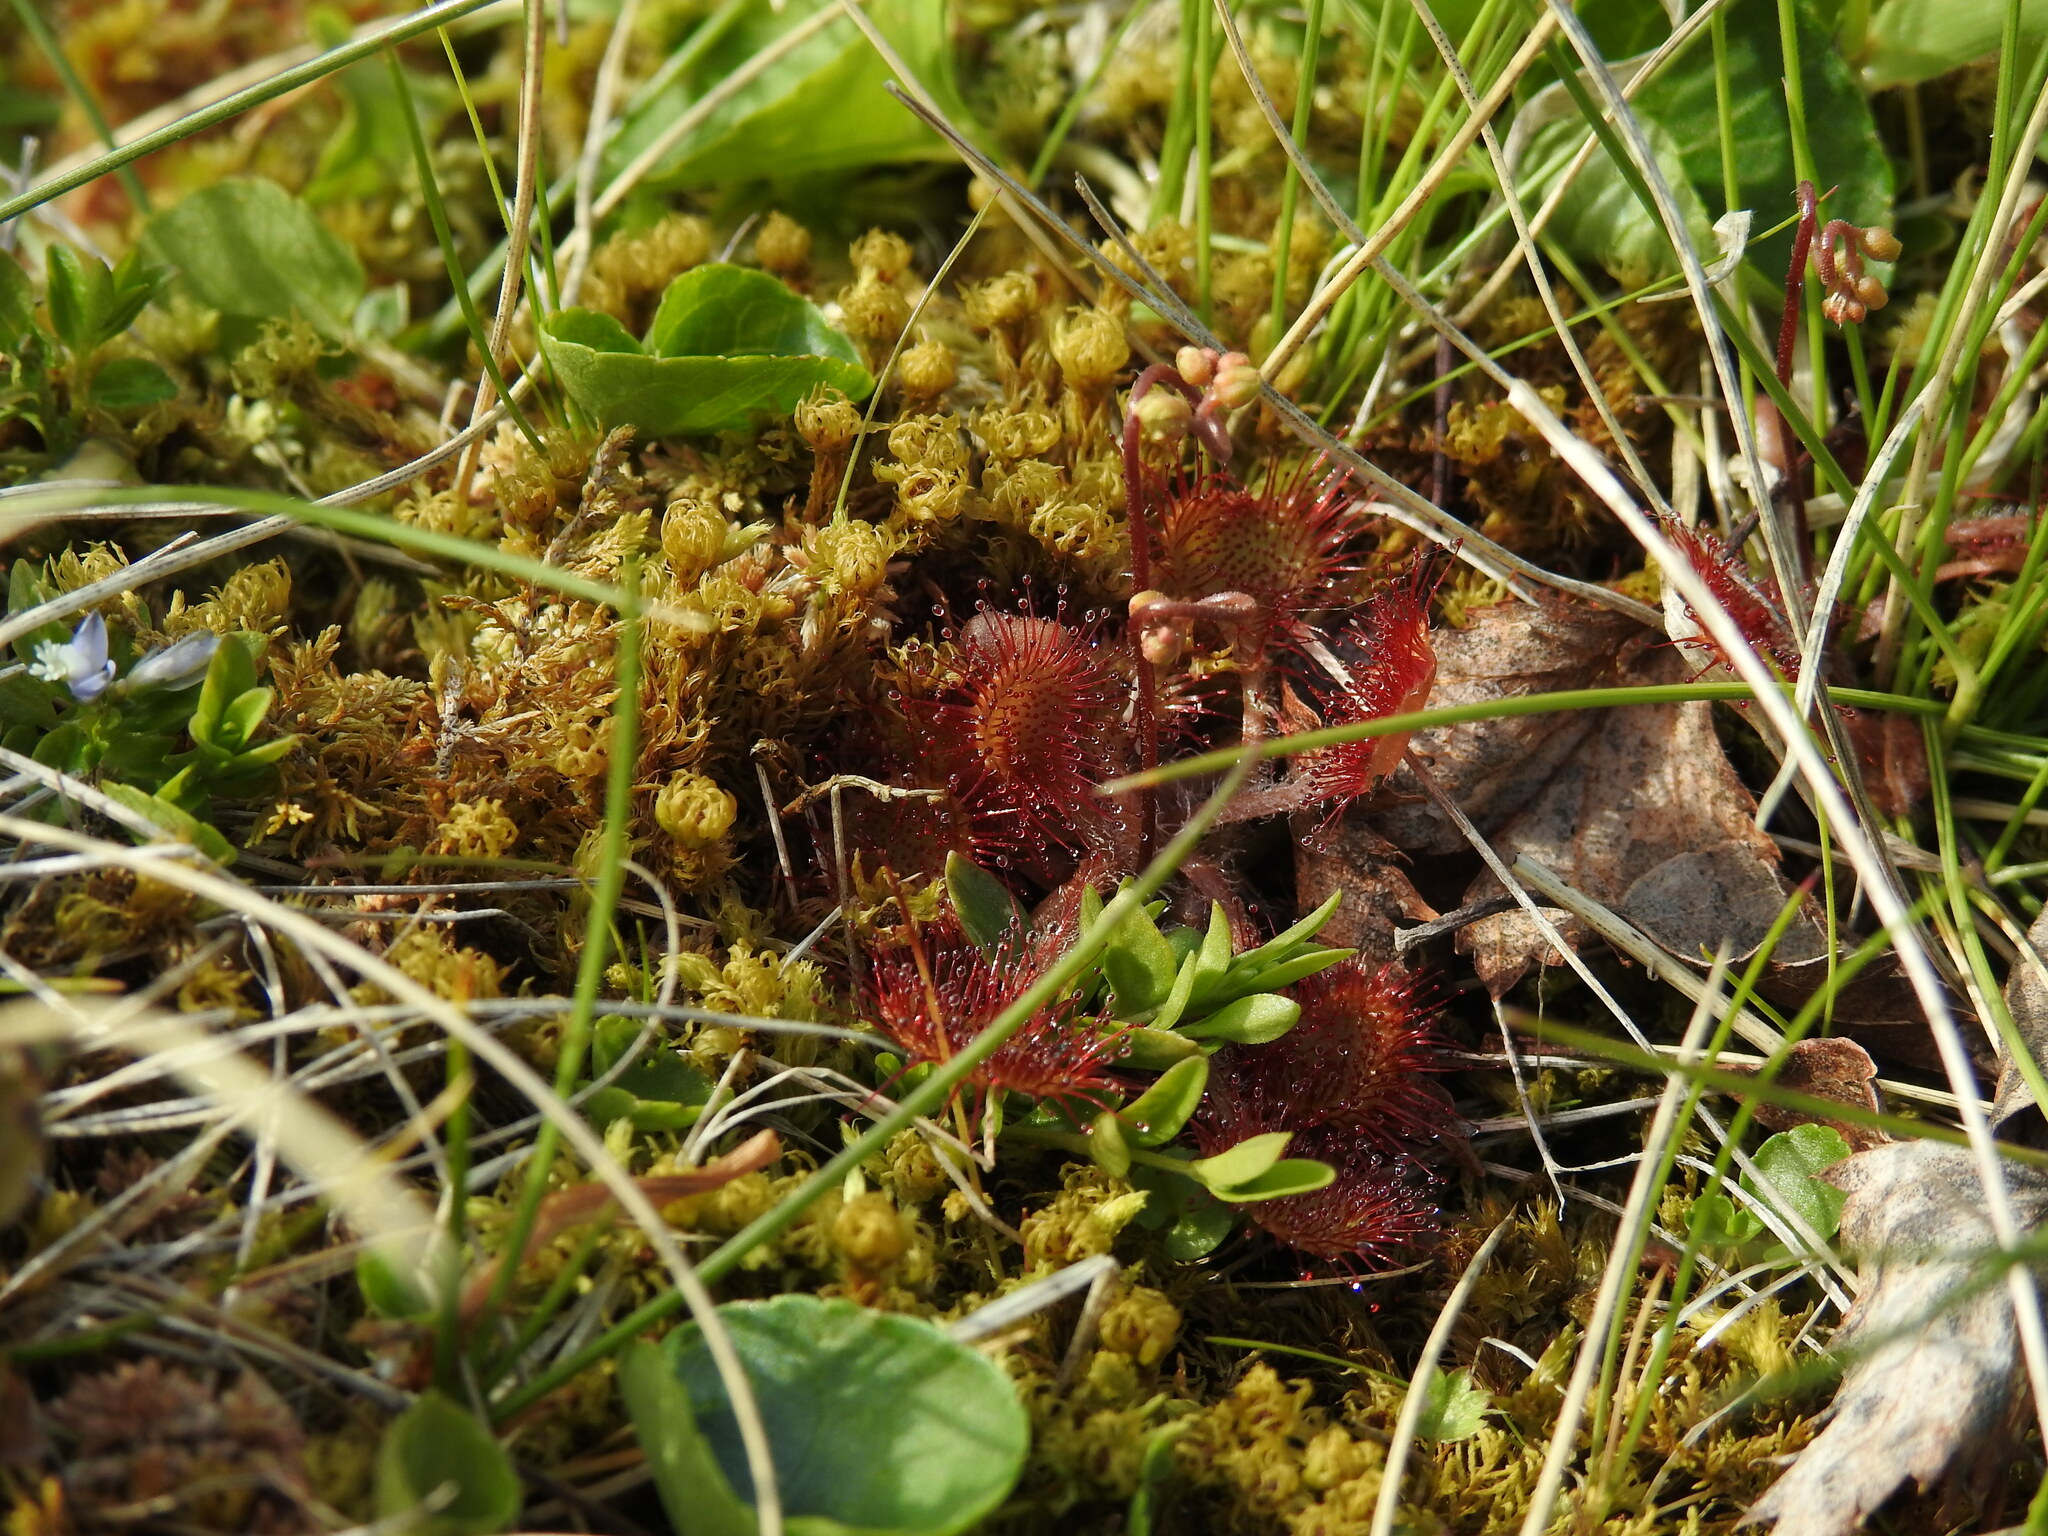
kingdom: Plantae
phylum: Tracheophyta
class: Magnoliopsida
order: Caryophyllales
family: Droseraceae
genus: Drosera
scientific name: Drosera rotundifolia
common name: Round-leaved sundew
